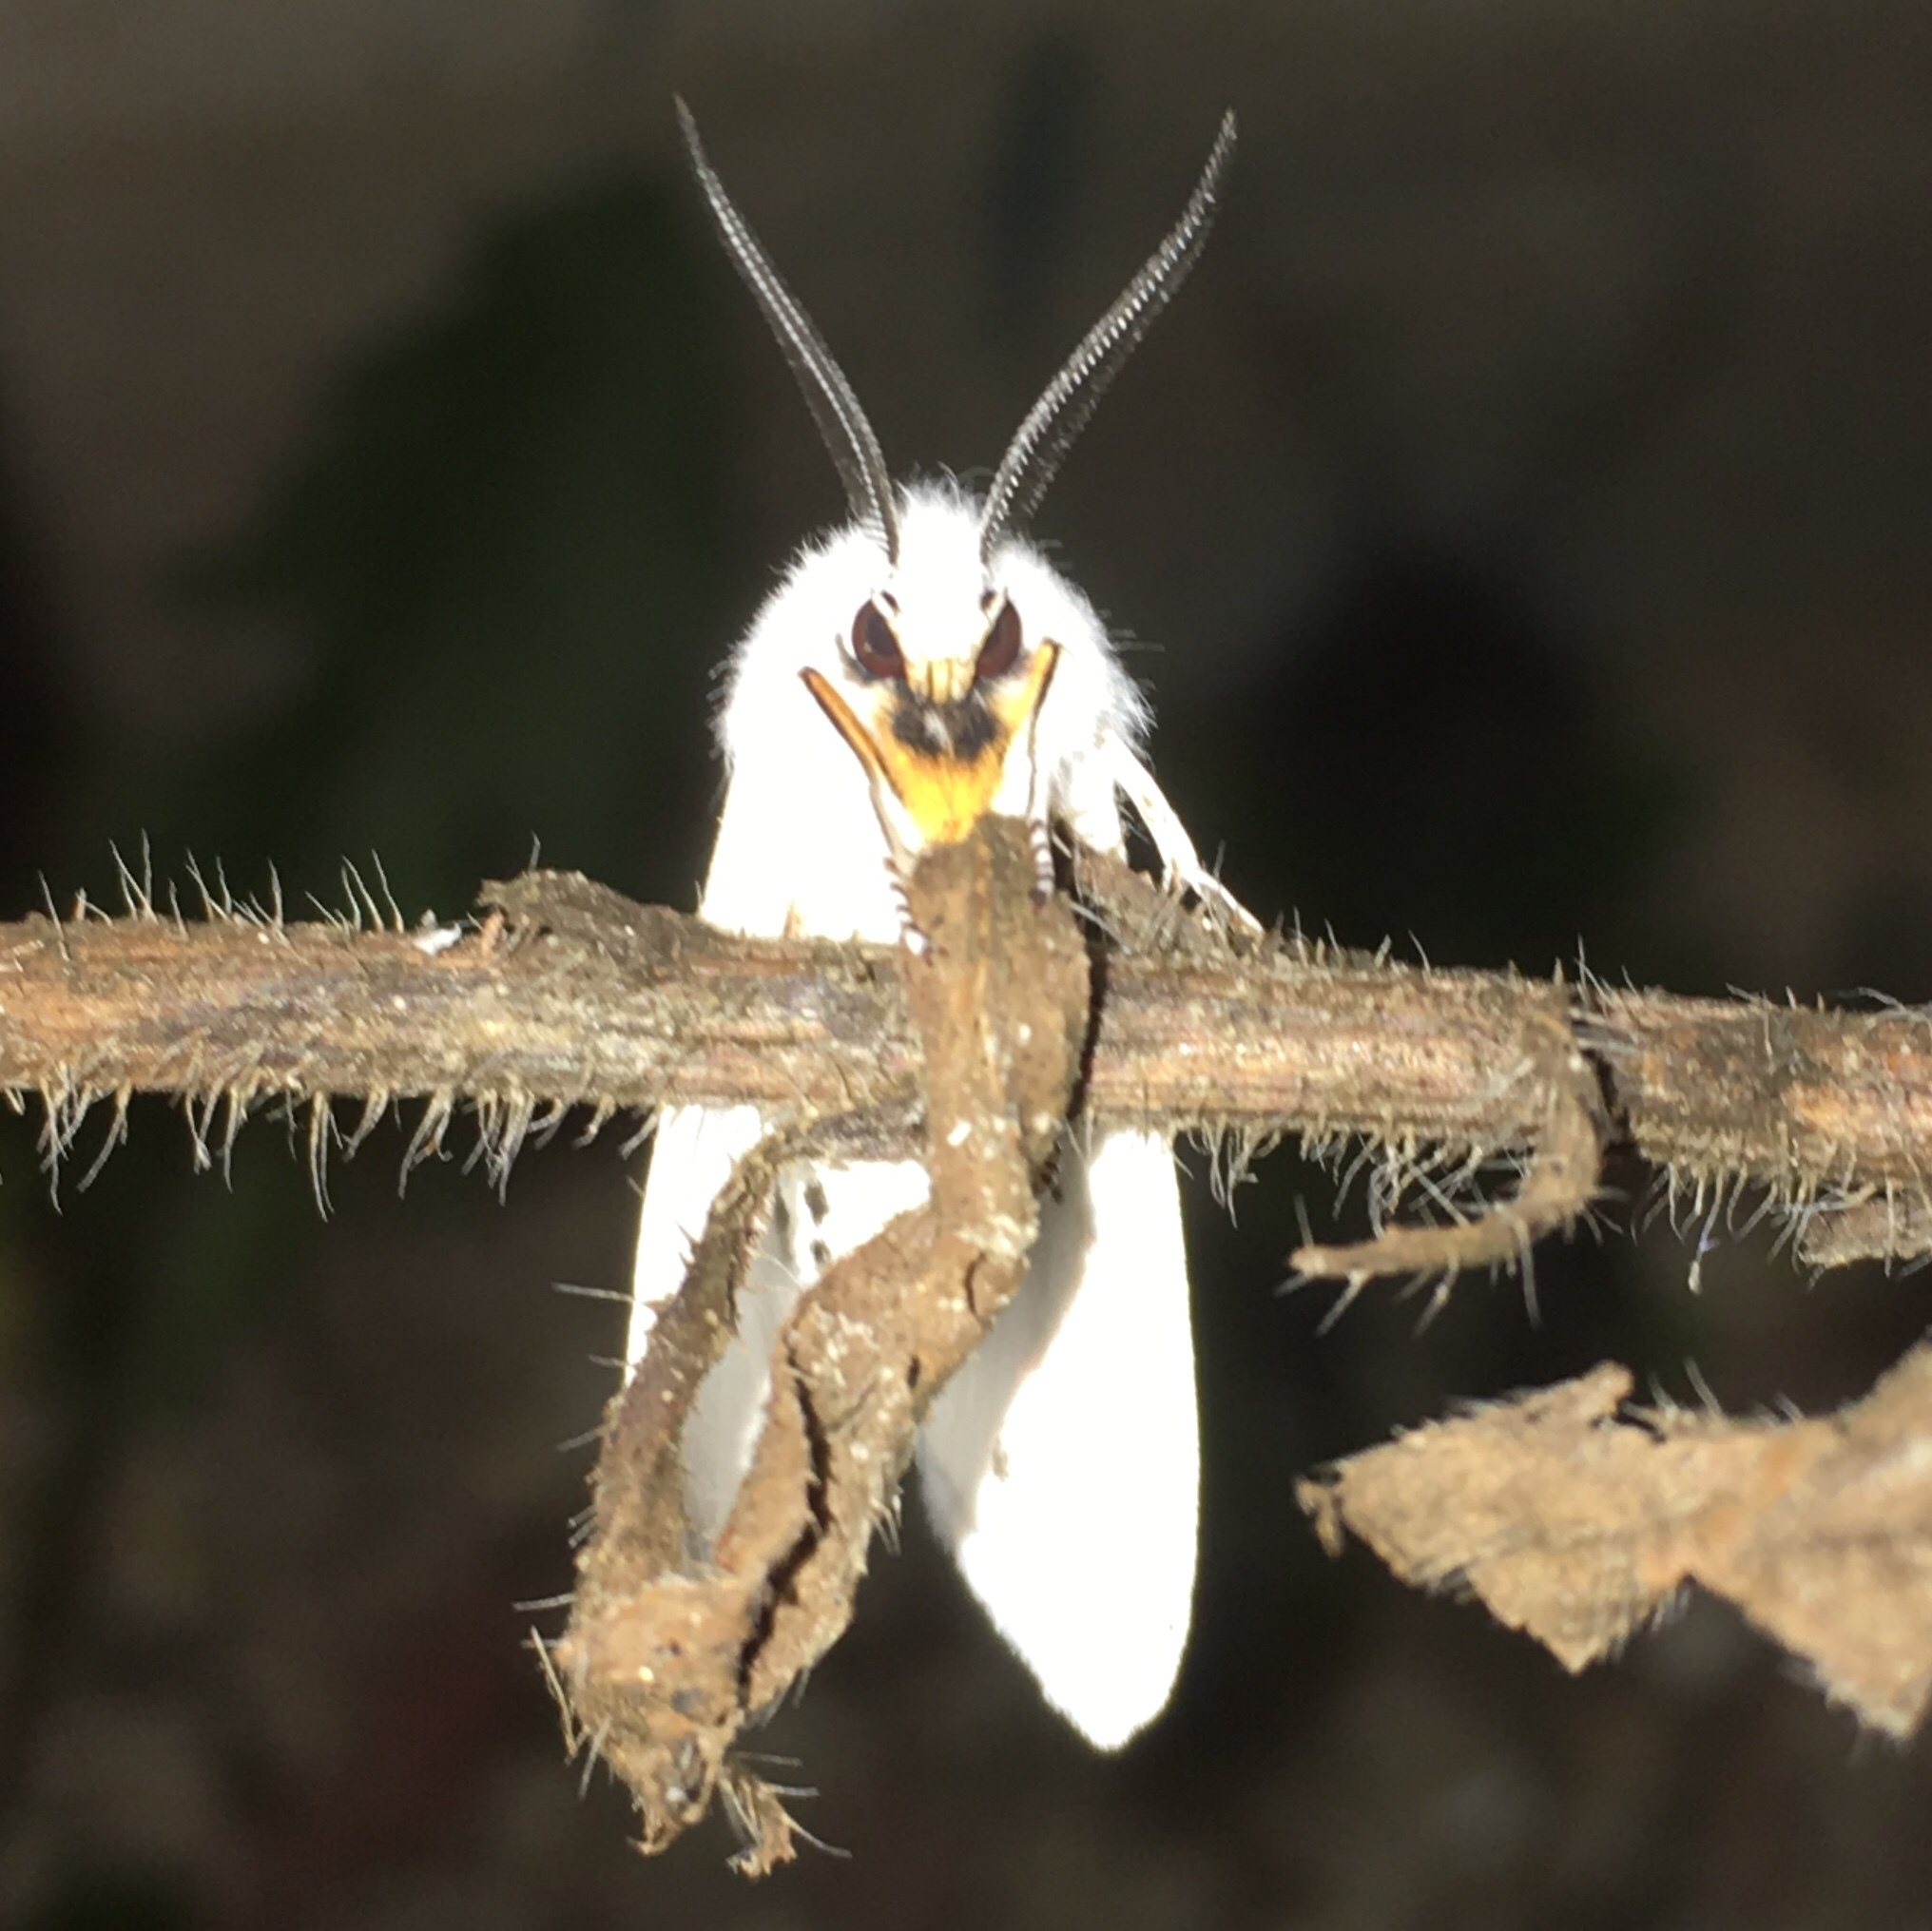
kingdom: Animalia
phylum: Arthropoda
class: Insecta
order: Lepidoptera
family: Erebidae
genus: Spilosoma
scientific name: Spilosoma virginica
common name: Virginia tiger moth
